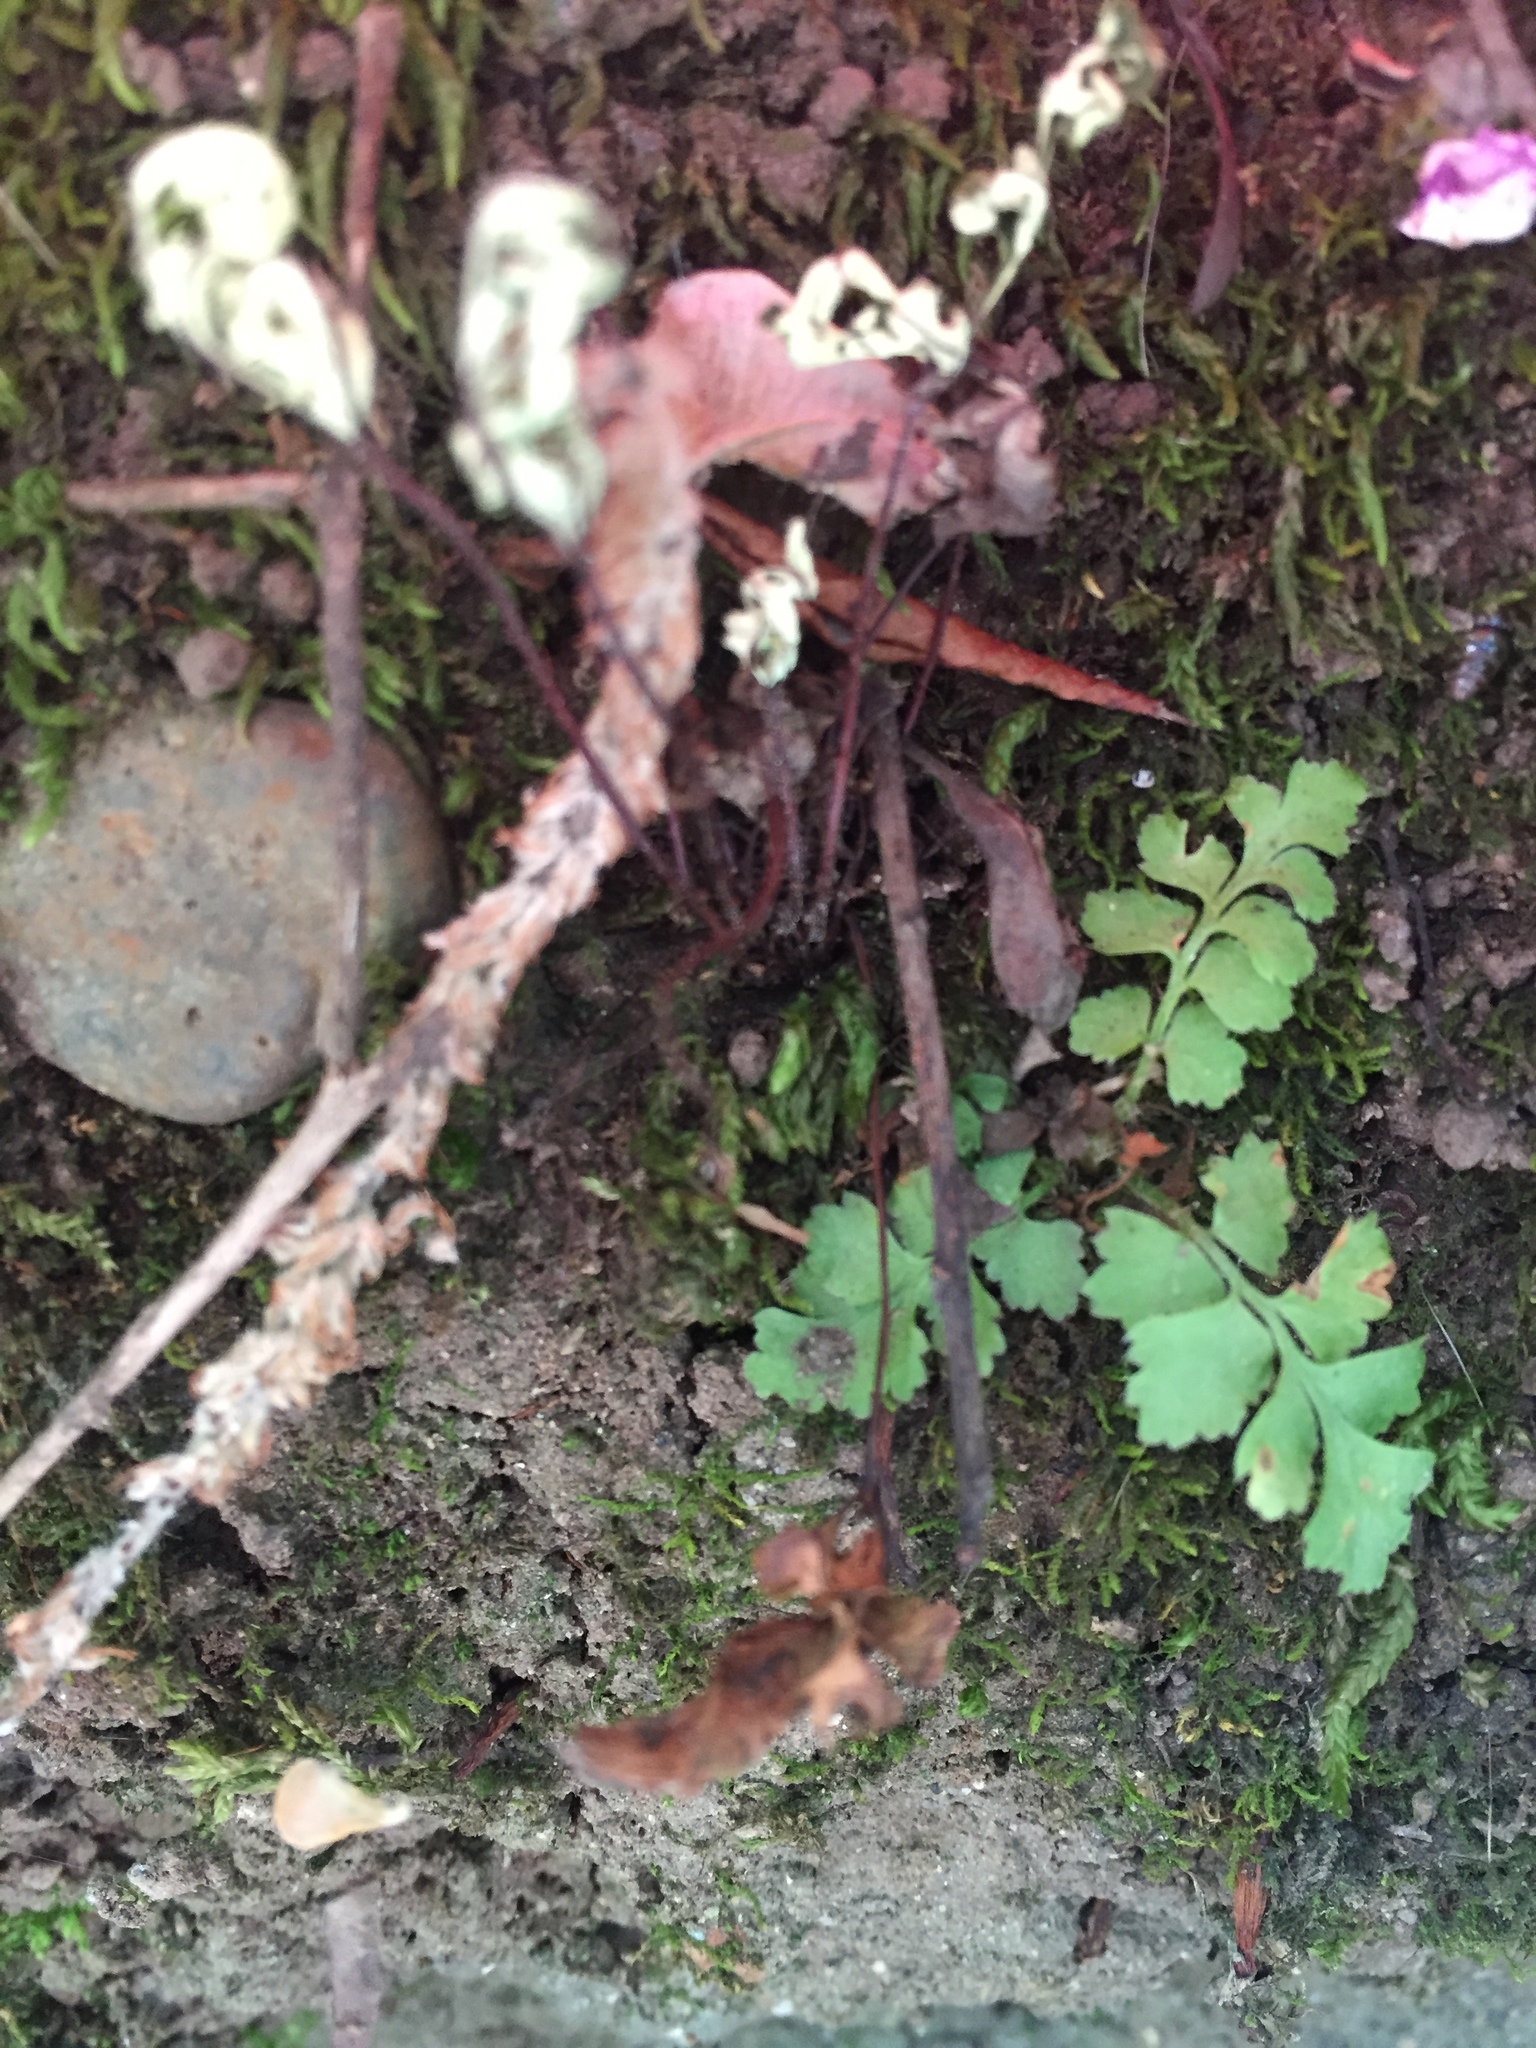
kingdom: Plantae
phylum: Tracheophyta
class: Polypodiopsida
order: Polypodiales
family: Pteridaceae
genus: Pentagramma
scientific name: Pentagramma triangularis
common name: Gold fern
